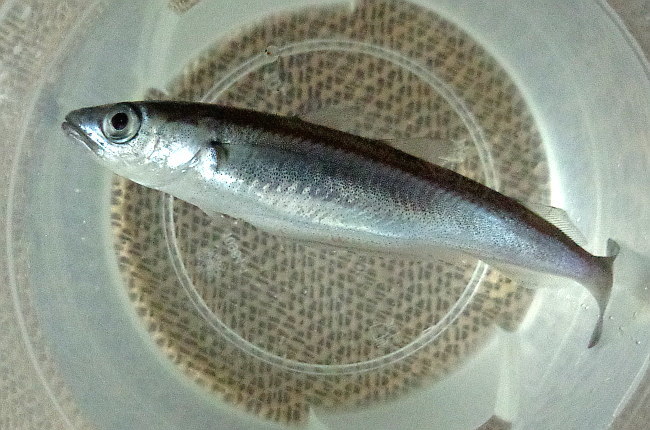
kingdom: Animalia
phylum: Chordata
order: Gadiformes
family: Gadidae
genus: Micromesistius
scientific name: Micromesistius poutassou
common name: Blue whiting
